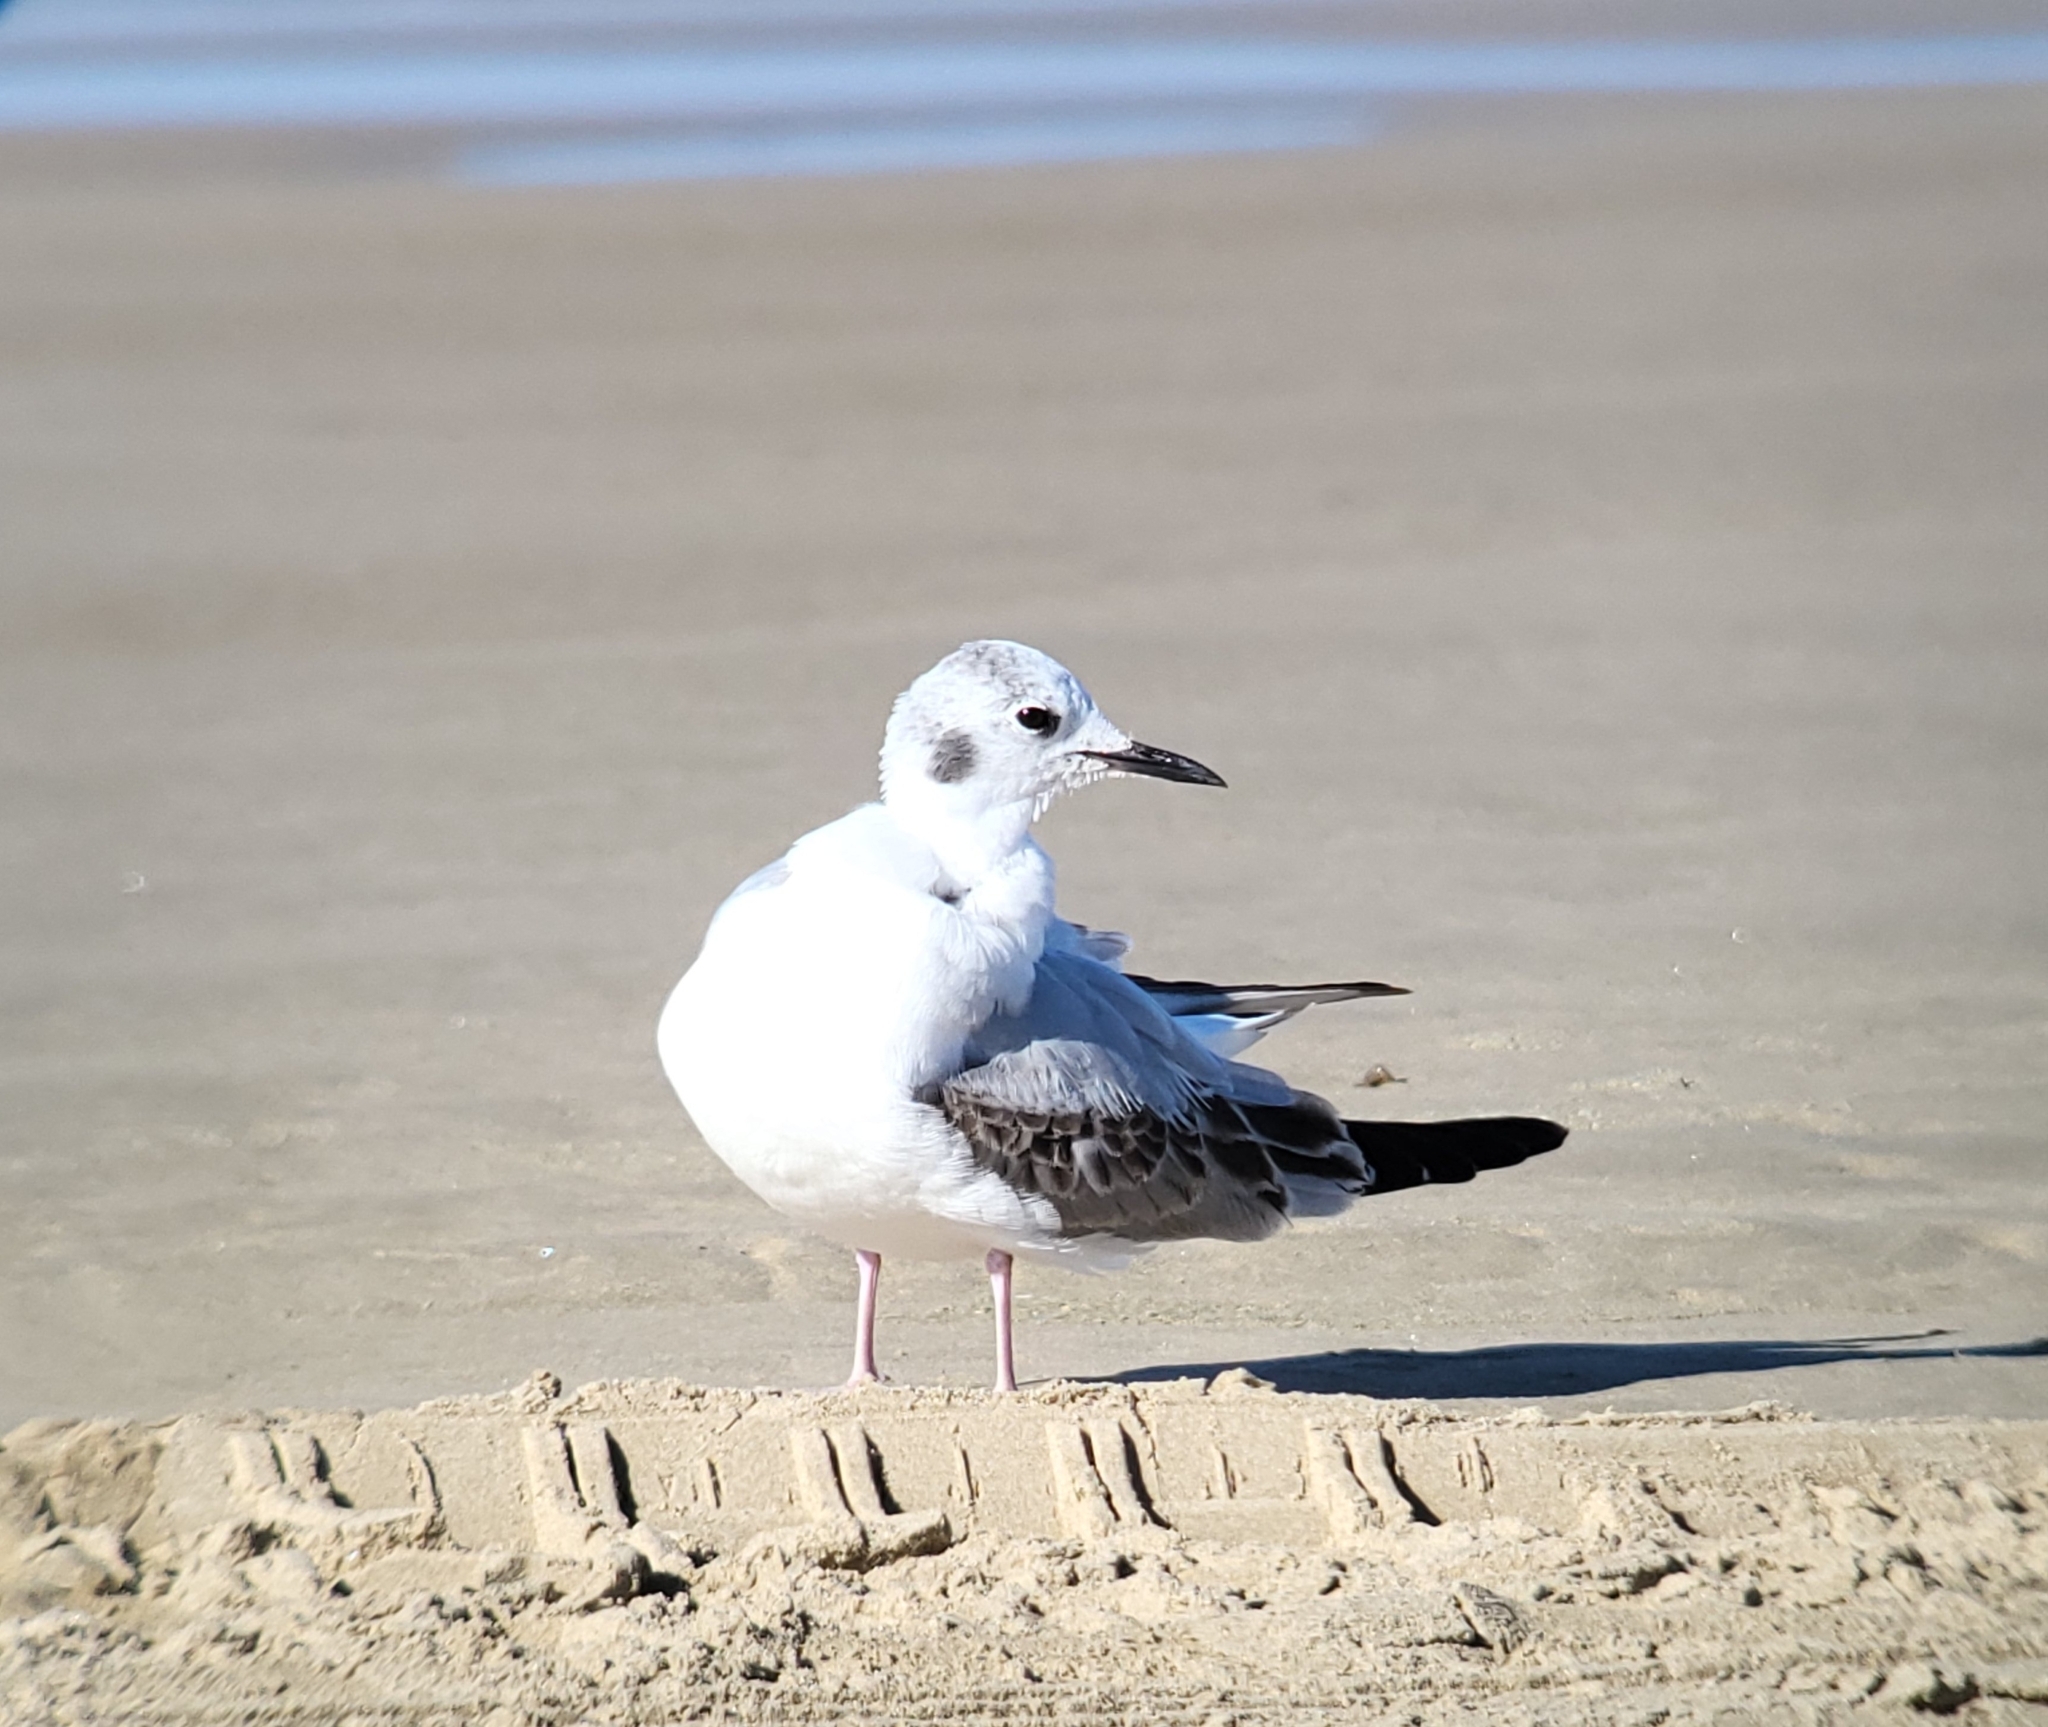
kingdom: Animalia
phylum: Chordata
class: Aves
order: Charadriiformes
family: Laridae
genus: Chroicocephalus
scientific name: Chroicocephalus philadelphia
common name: Bonaparte's gull
